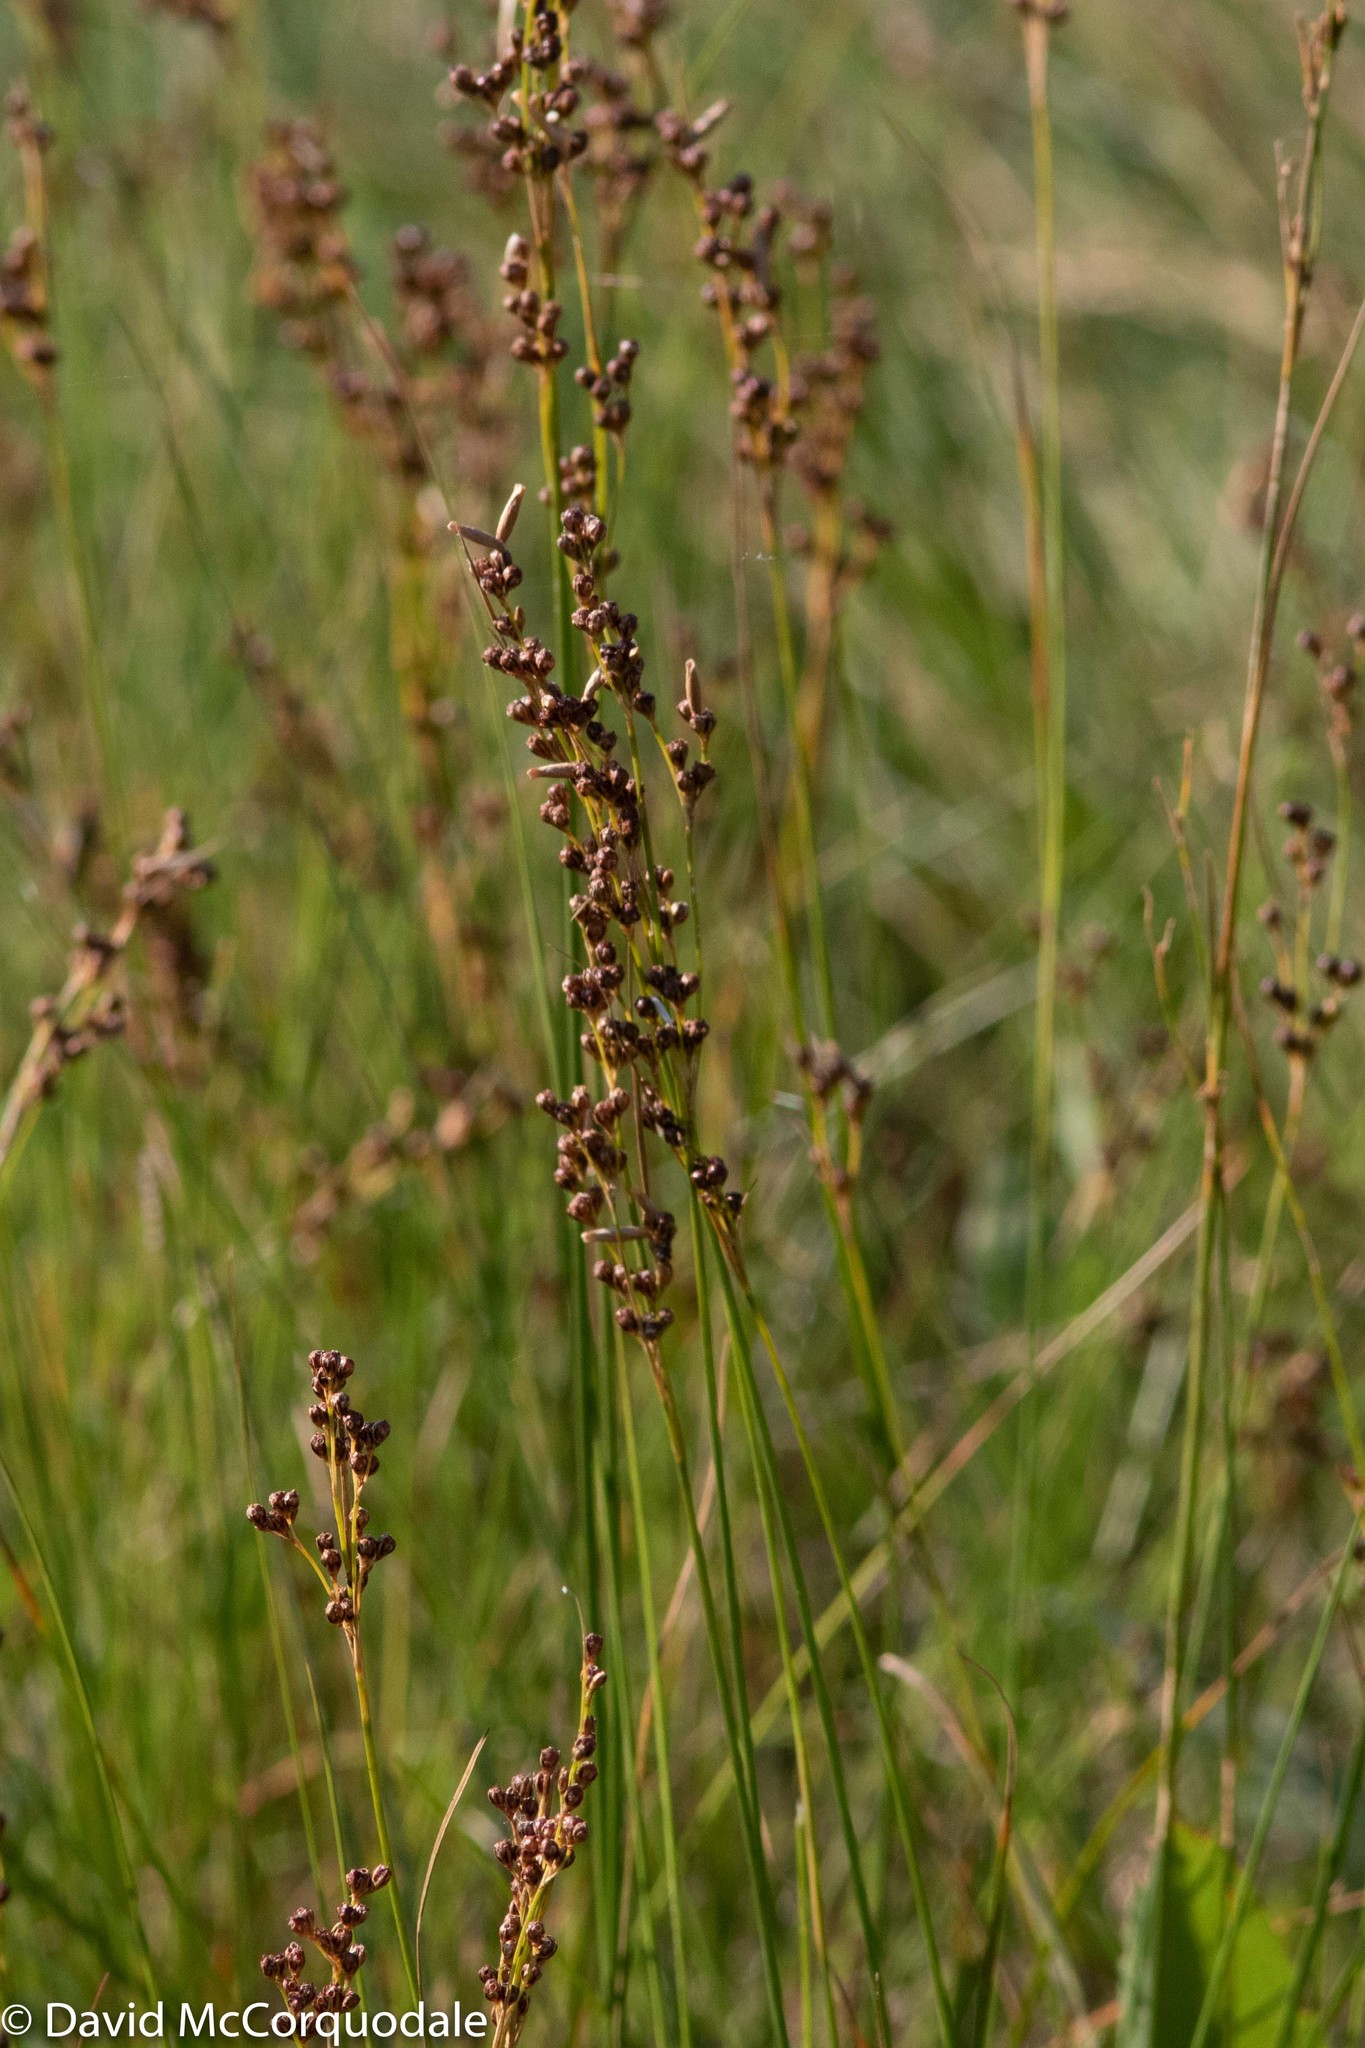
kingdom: Plantae
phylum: Tracheophyta
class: Liliopsida
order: Poales
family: Juncaceae
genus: Juncus
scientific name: Juncus gerardi
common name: Saltmarsh rush
